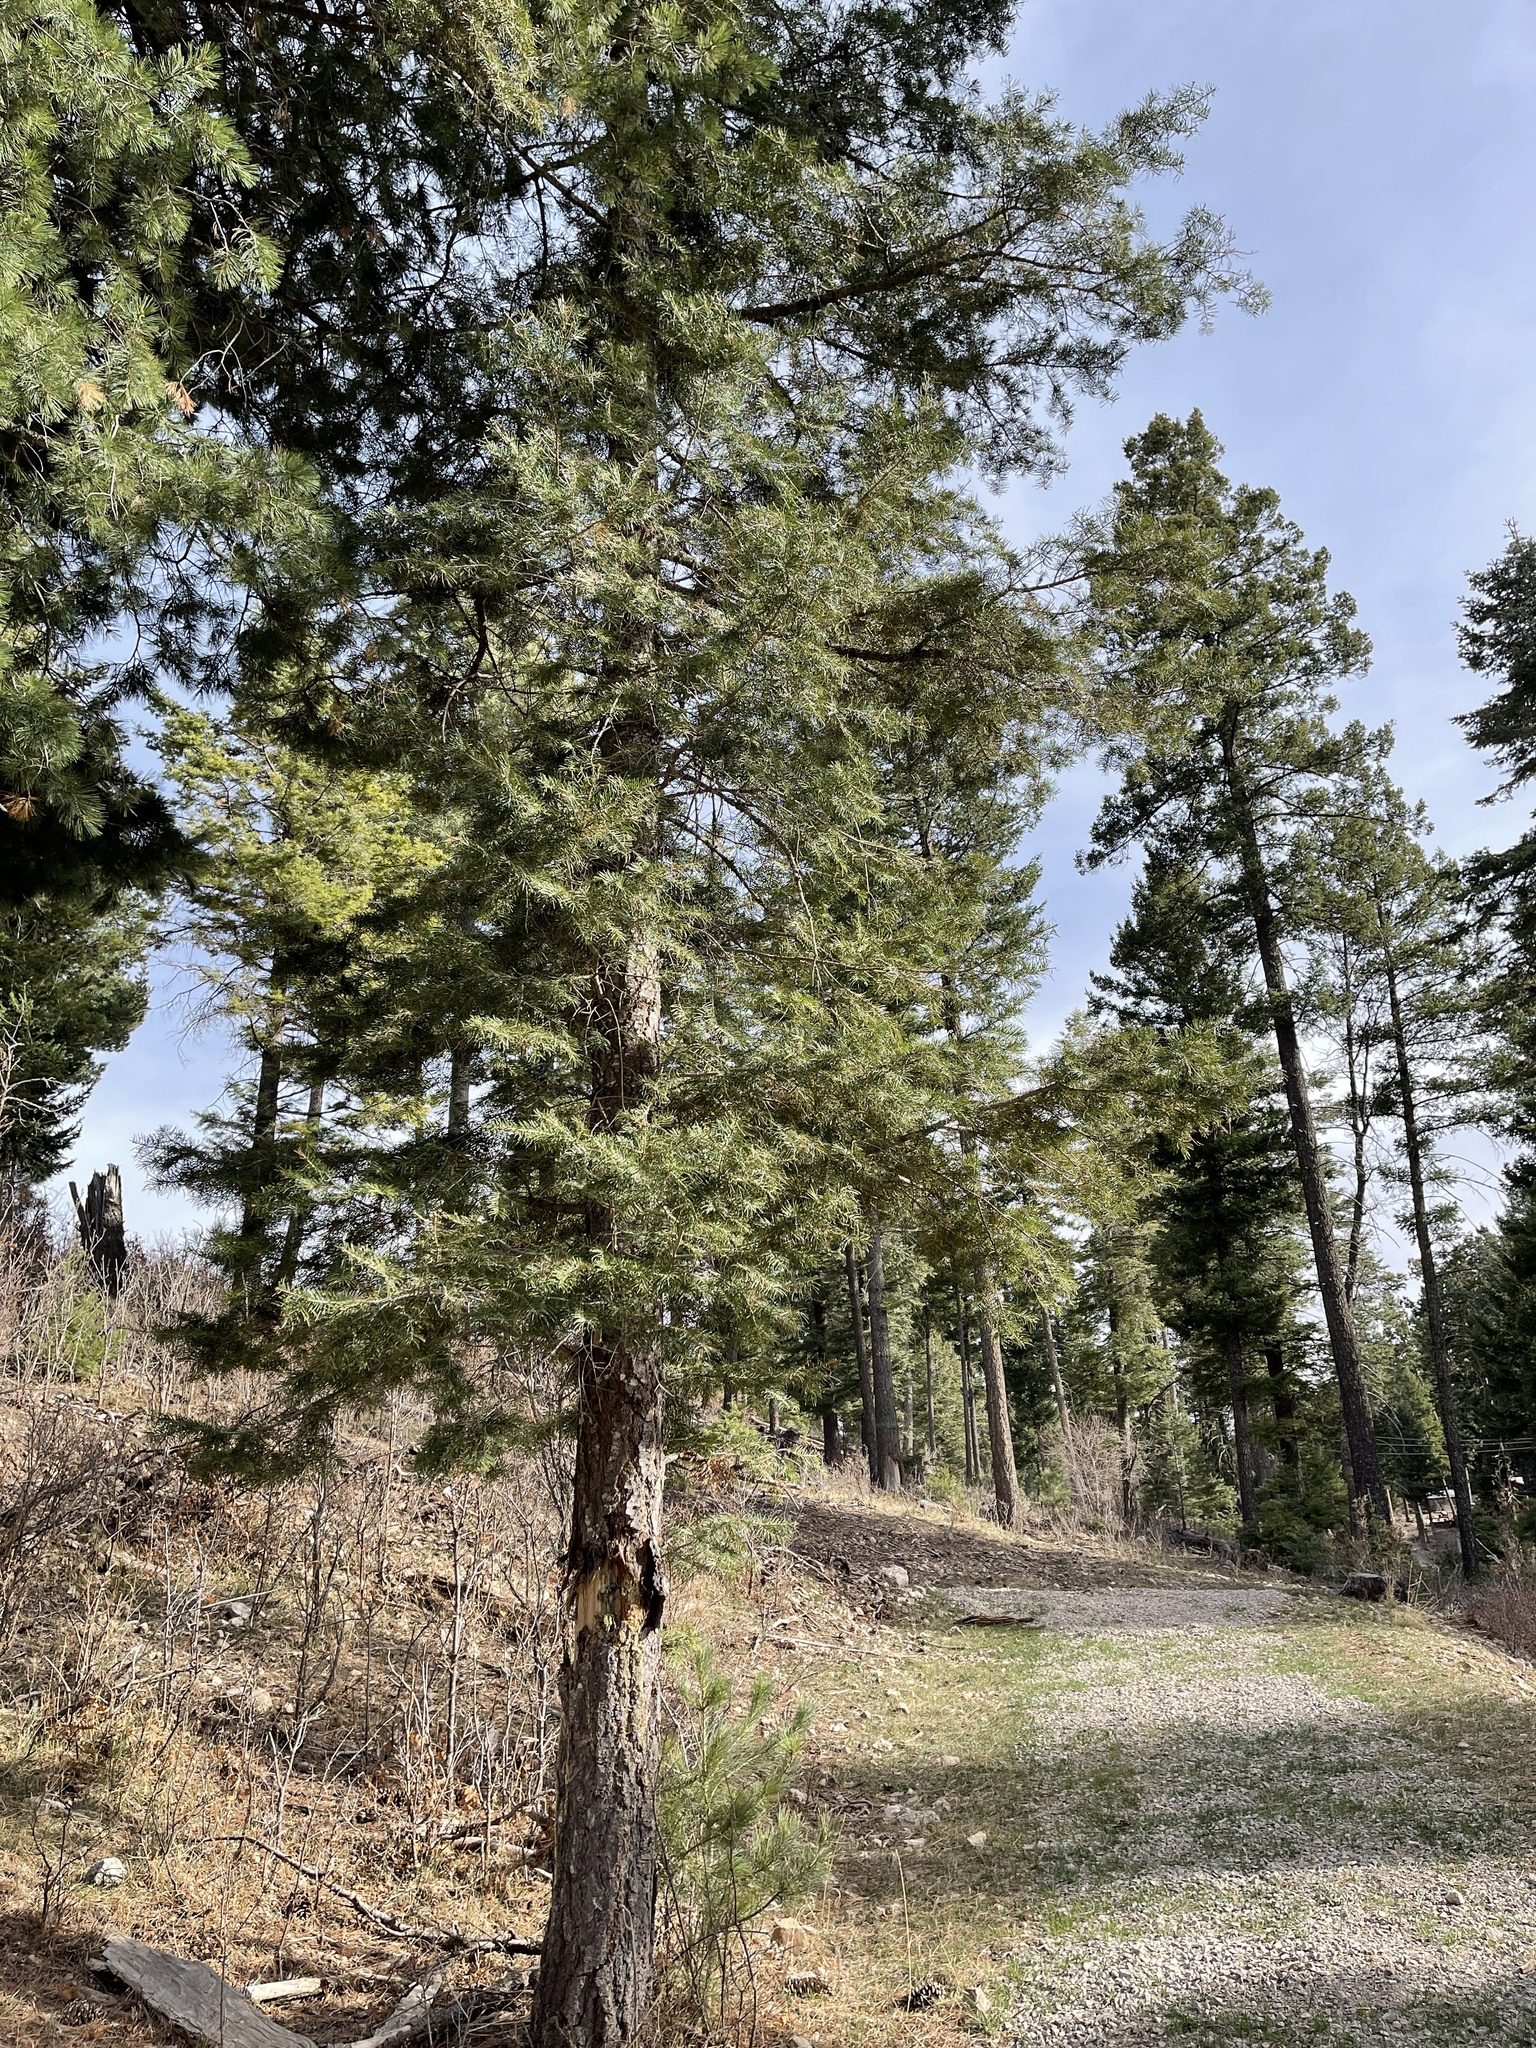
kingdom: Plantae
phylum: Tracheophyta
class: Pinopsida
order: Pinales
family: Pinaceae
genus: Abies
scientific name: Abies concolor
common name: Colorado fir
